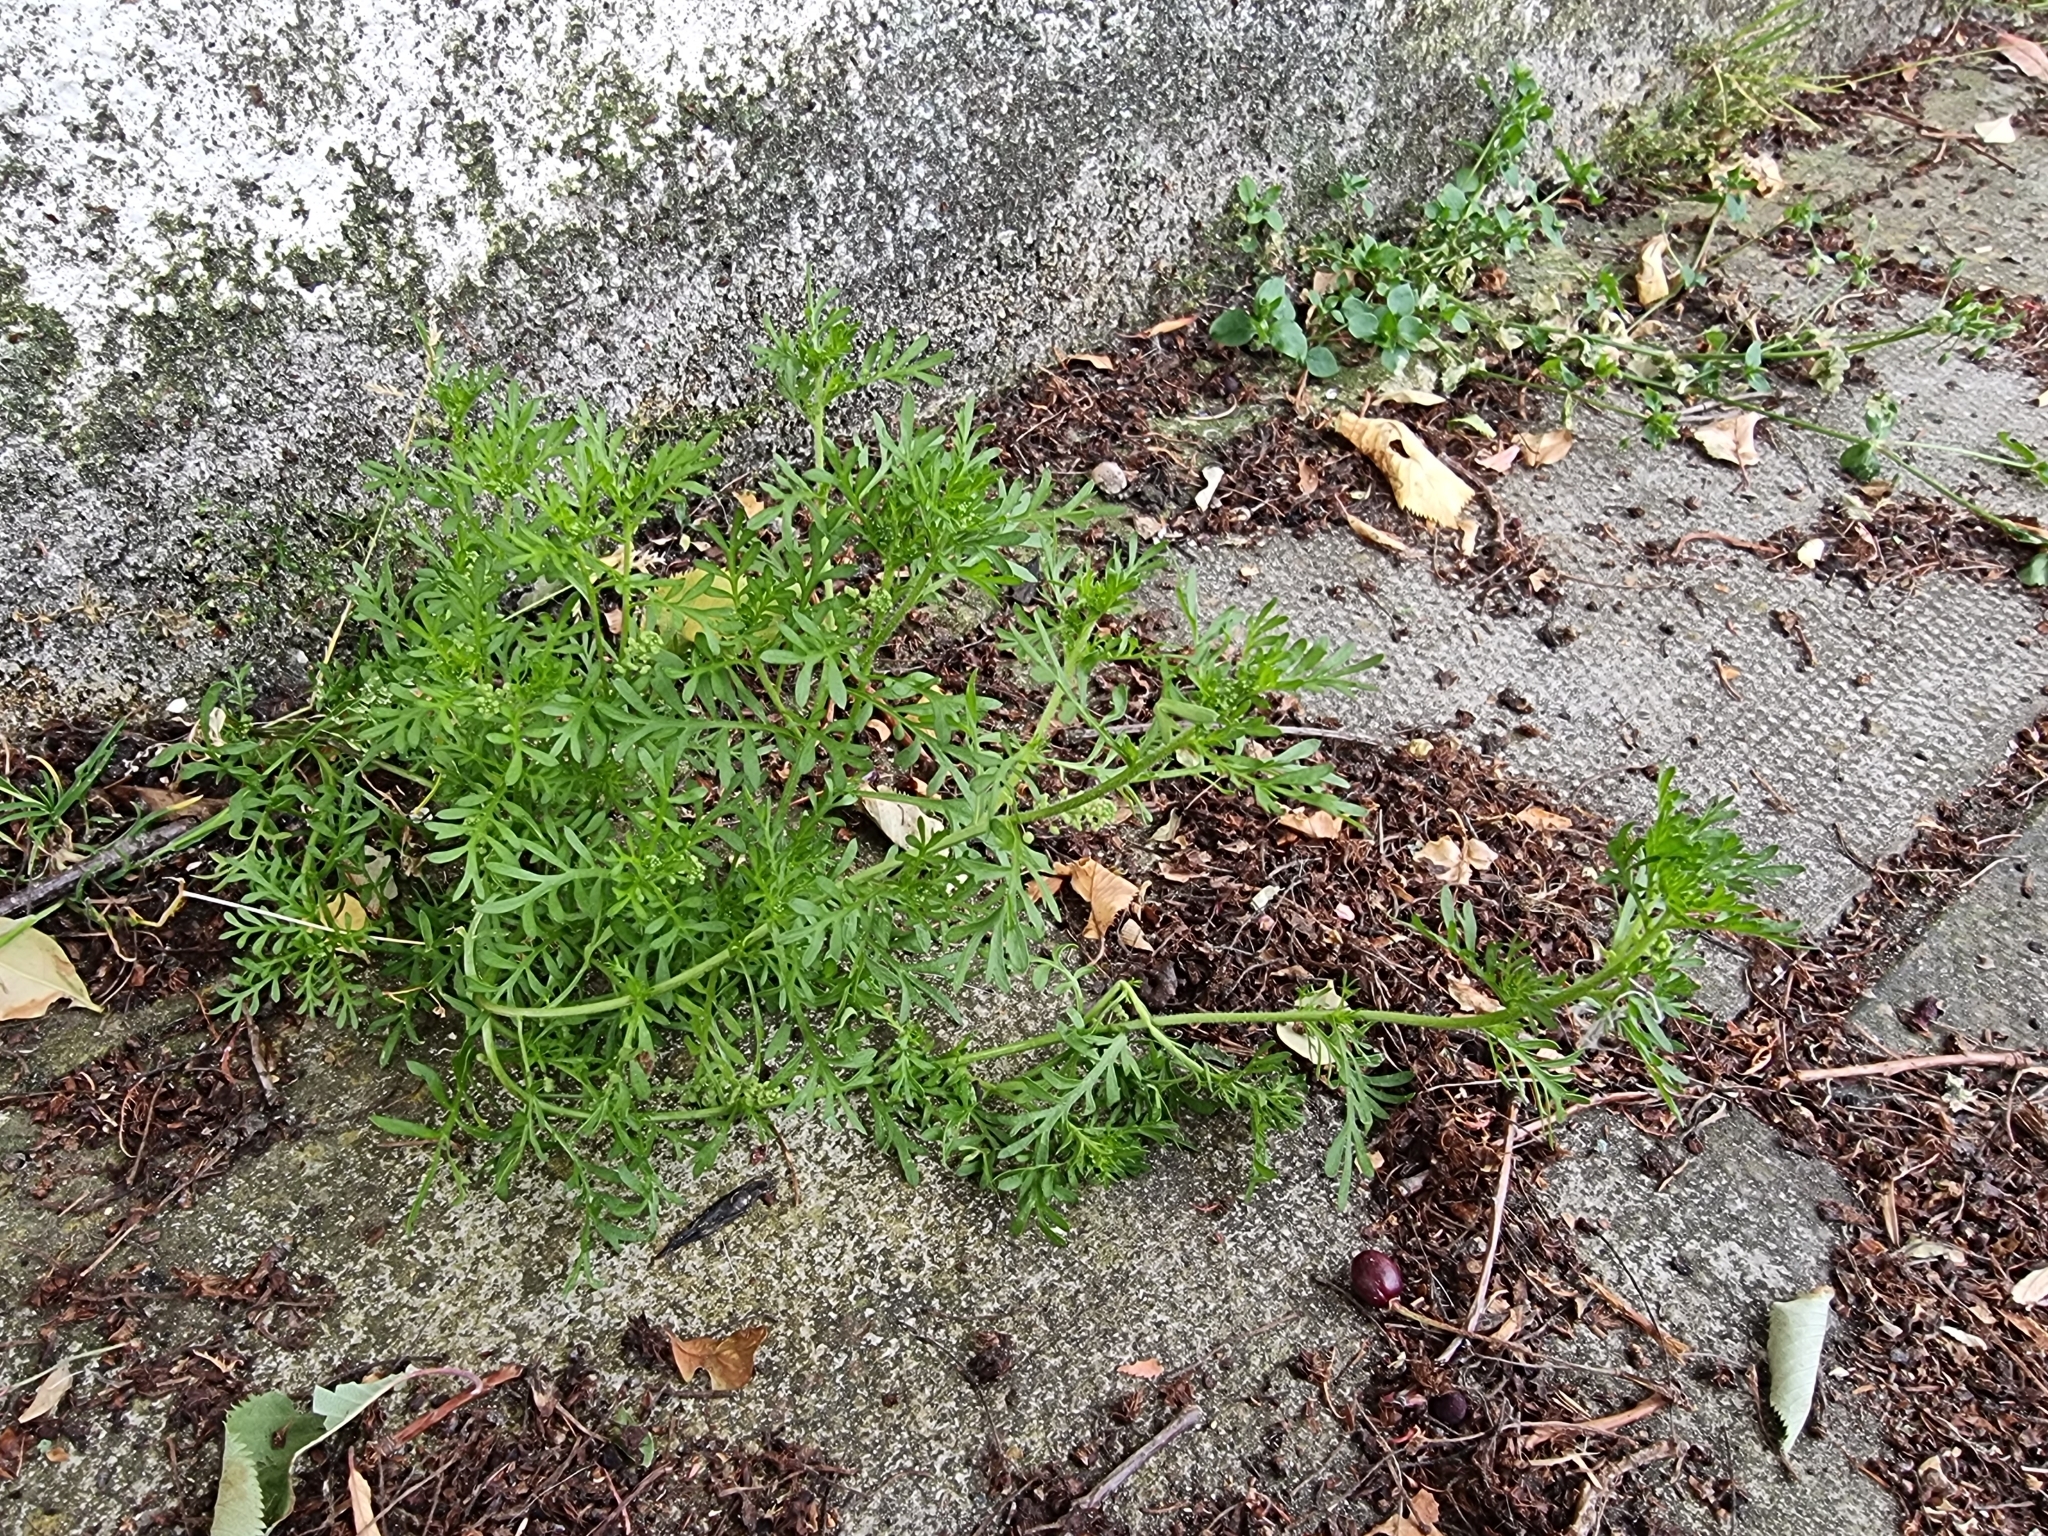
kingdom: Plantae
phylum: Tracheophyta
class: Magnoliopsida
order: Brassicales
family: Brassicaceae
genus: Lepidium
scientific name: Lepidium didymum
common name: Lesser swinecress
